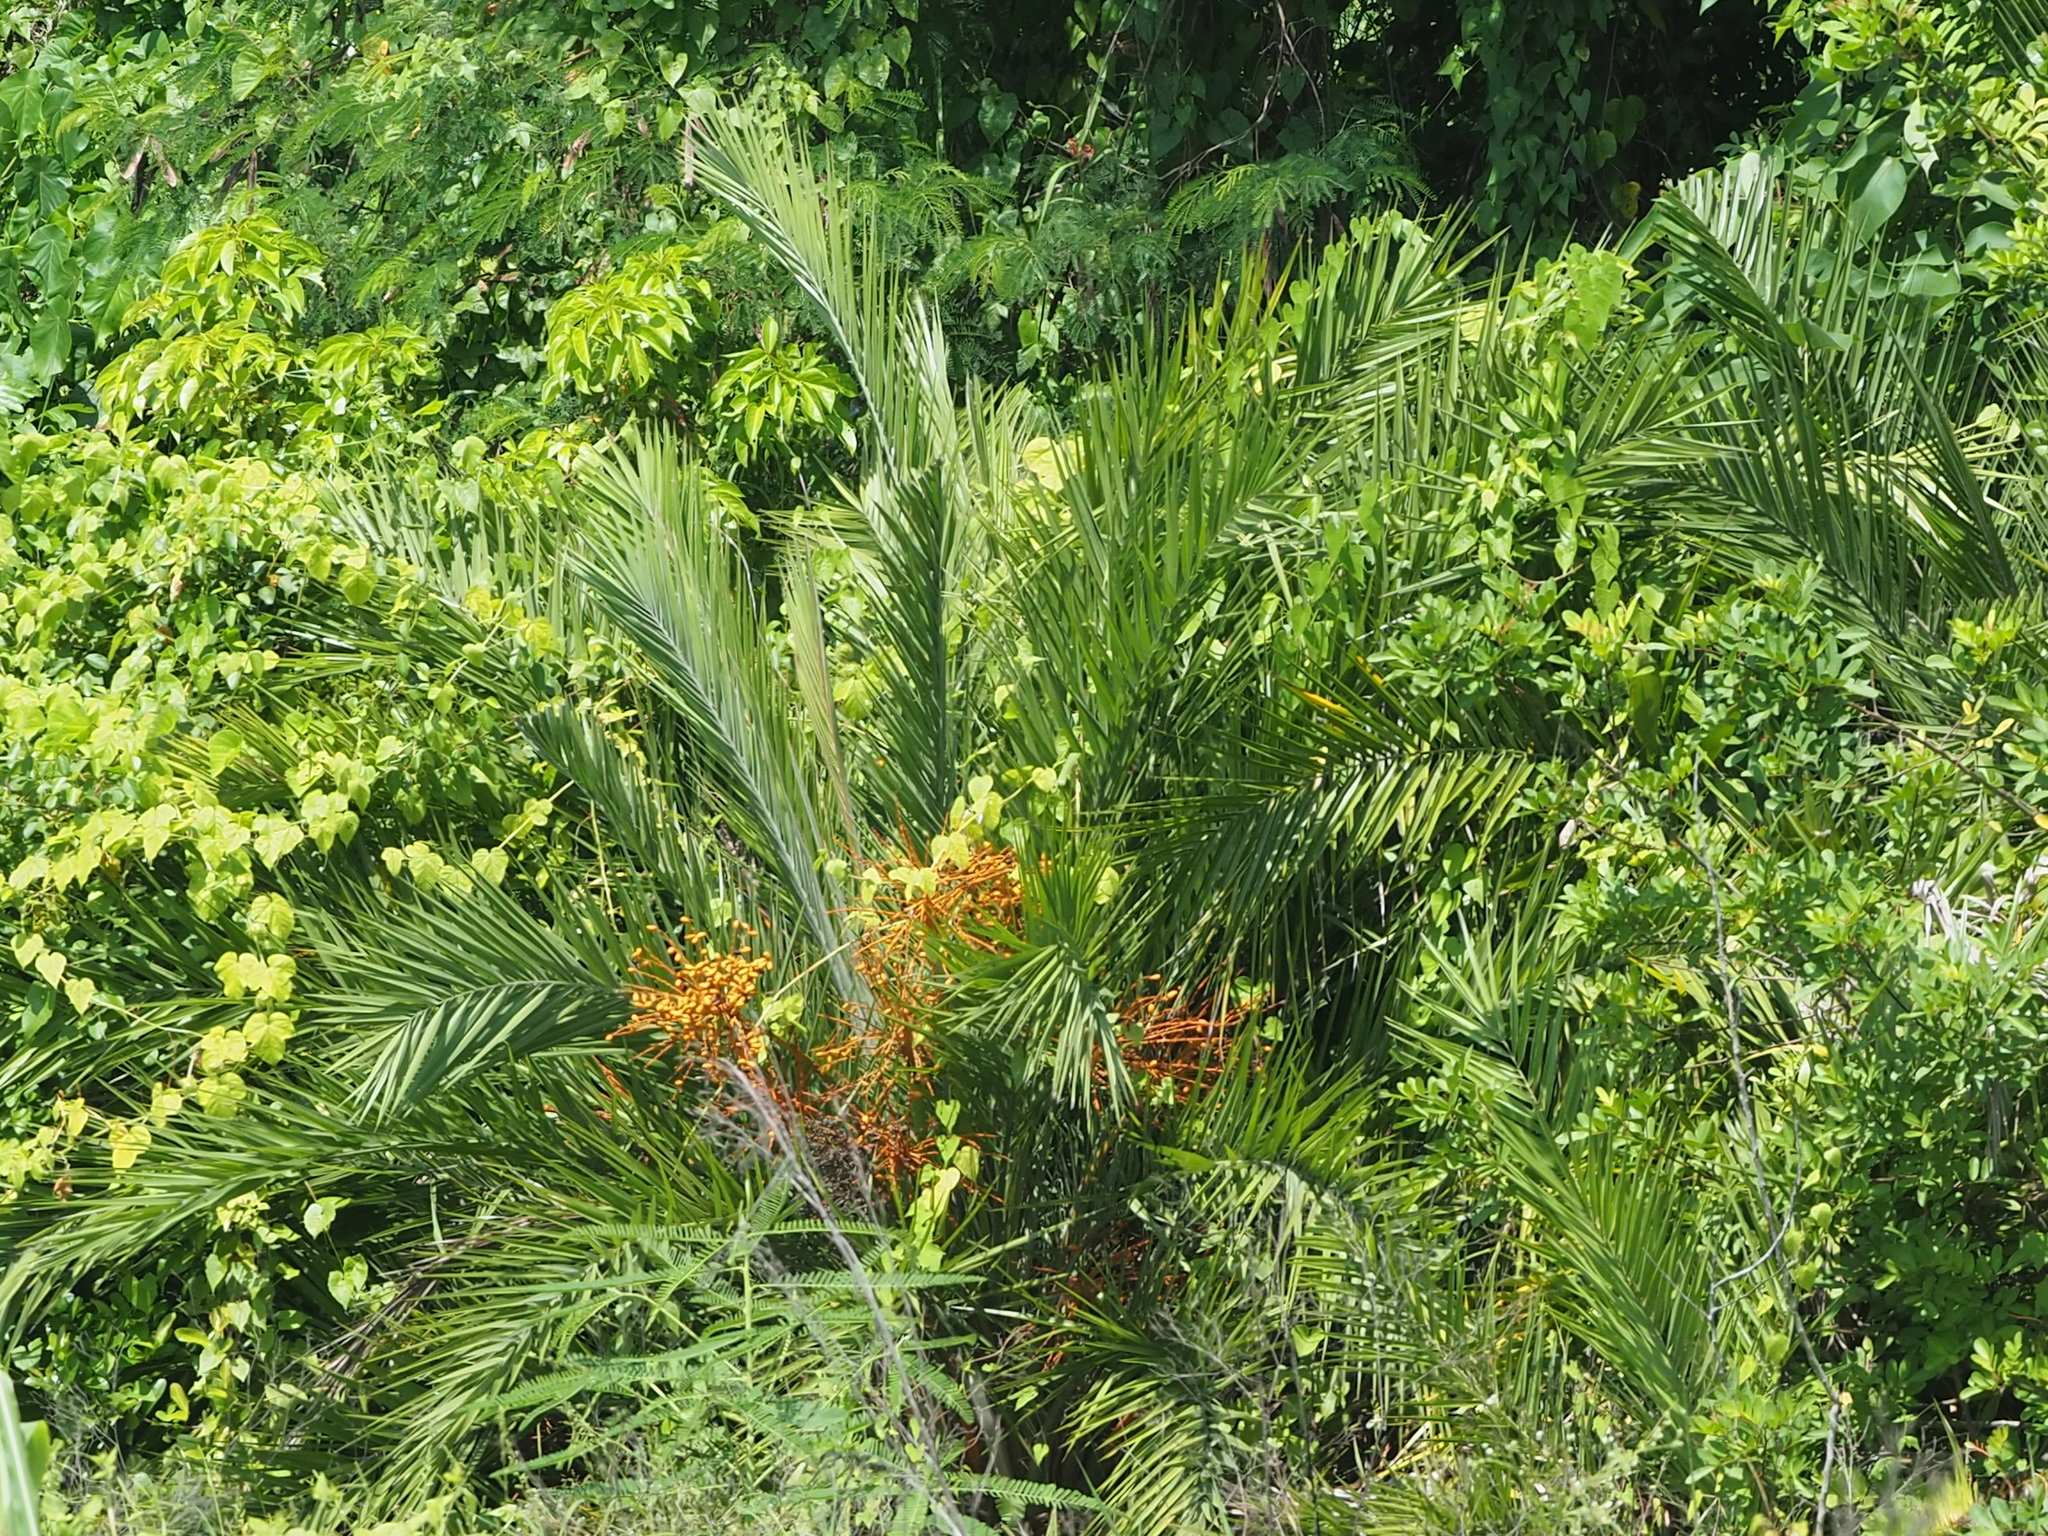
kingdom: Plantae
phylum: Tracheophyta
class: Liliopsida
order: Arecales
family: Arecaceae
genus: Phoenix
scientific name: Phoenix loureiroi
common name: Loureiro's palm
